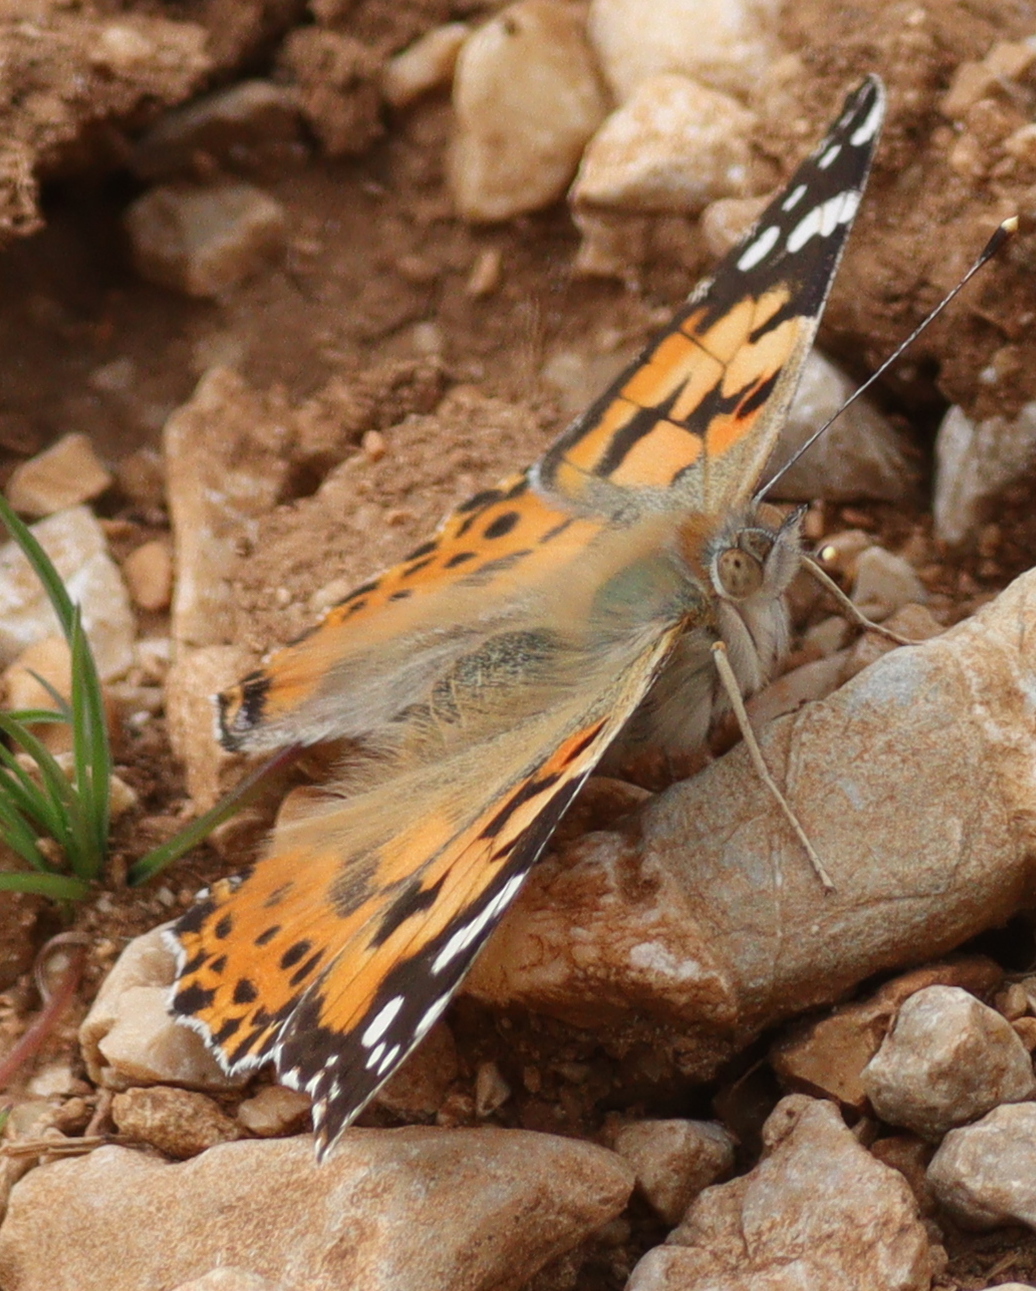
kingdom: Animalia
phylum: Arthropoda
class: Insecta
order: Lepidoptera
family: Nymphalidae
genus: Vanessa
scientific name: Vanessa cardui
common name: Painted lady
